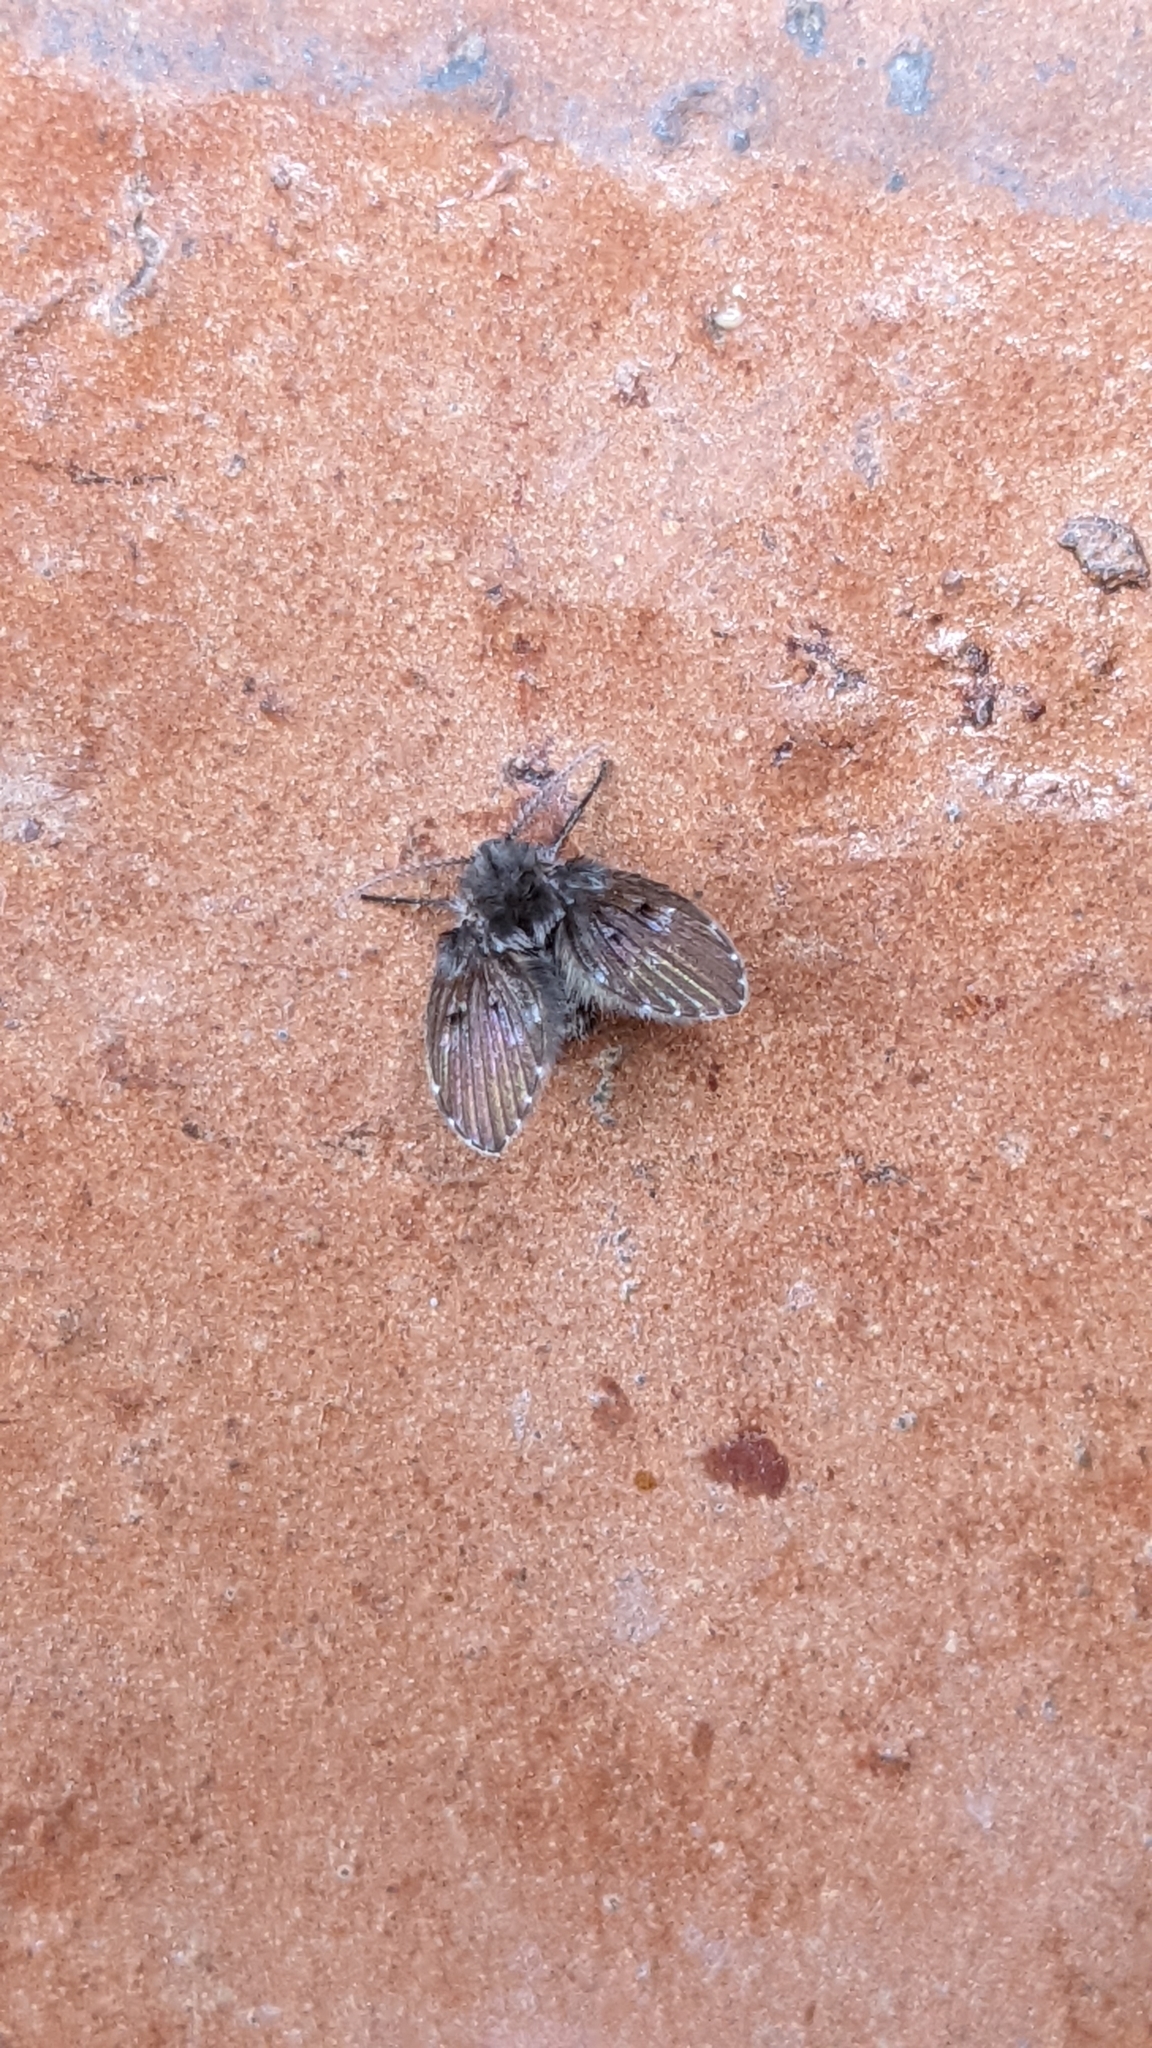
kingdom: Animalia
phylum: Arthropoda
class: Insecta
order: Diptera
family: Psychodidae
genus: Clogmia
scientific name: Clogmia albipunctatus
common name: White-spotted moth fly
